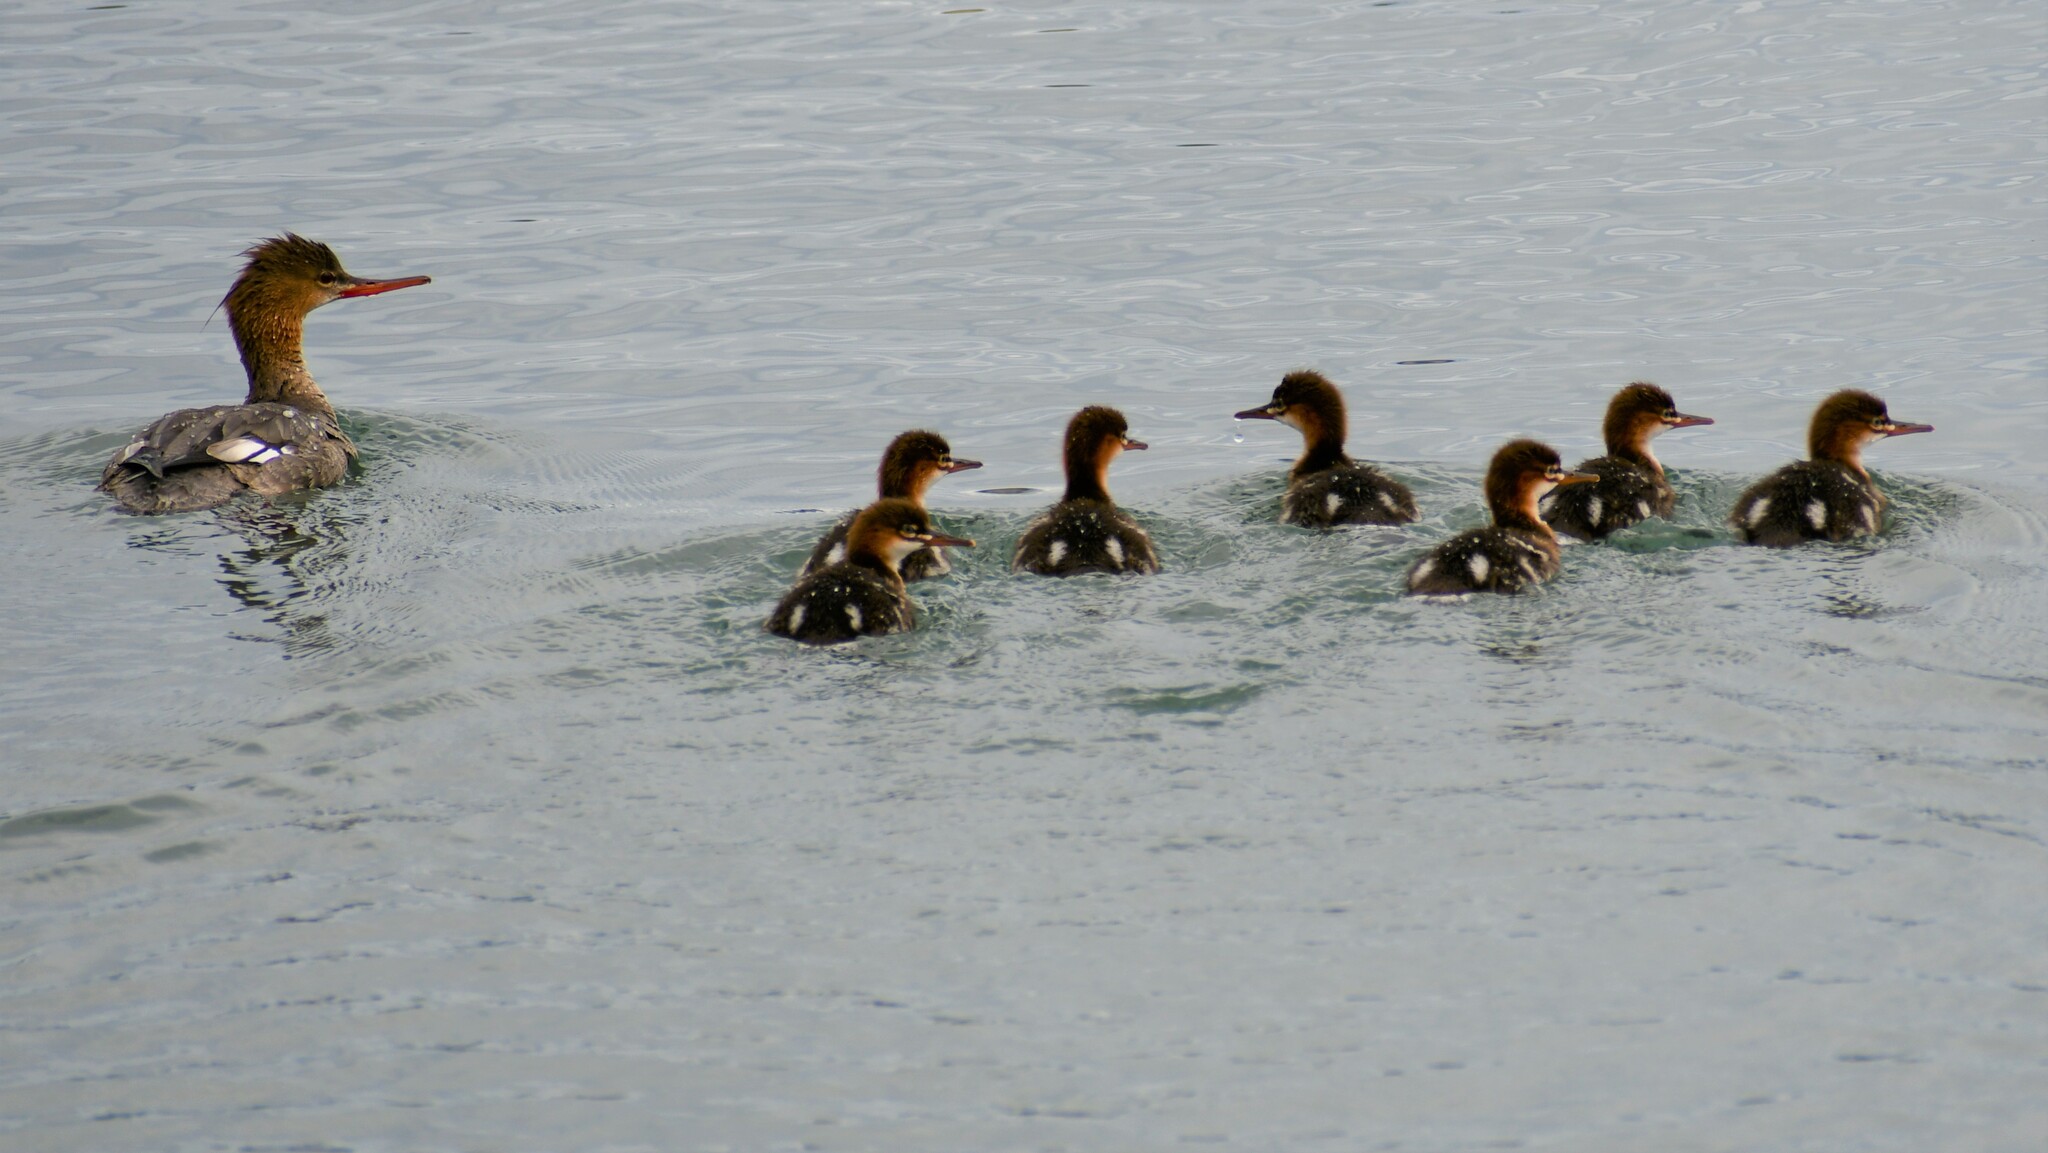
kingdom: Animalia
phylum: Chordata
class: Aves
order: Anseriformes
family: Anatidae
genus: Mergus
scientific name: Mergus serrator
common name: Red-breasted merganser
